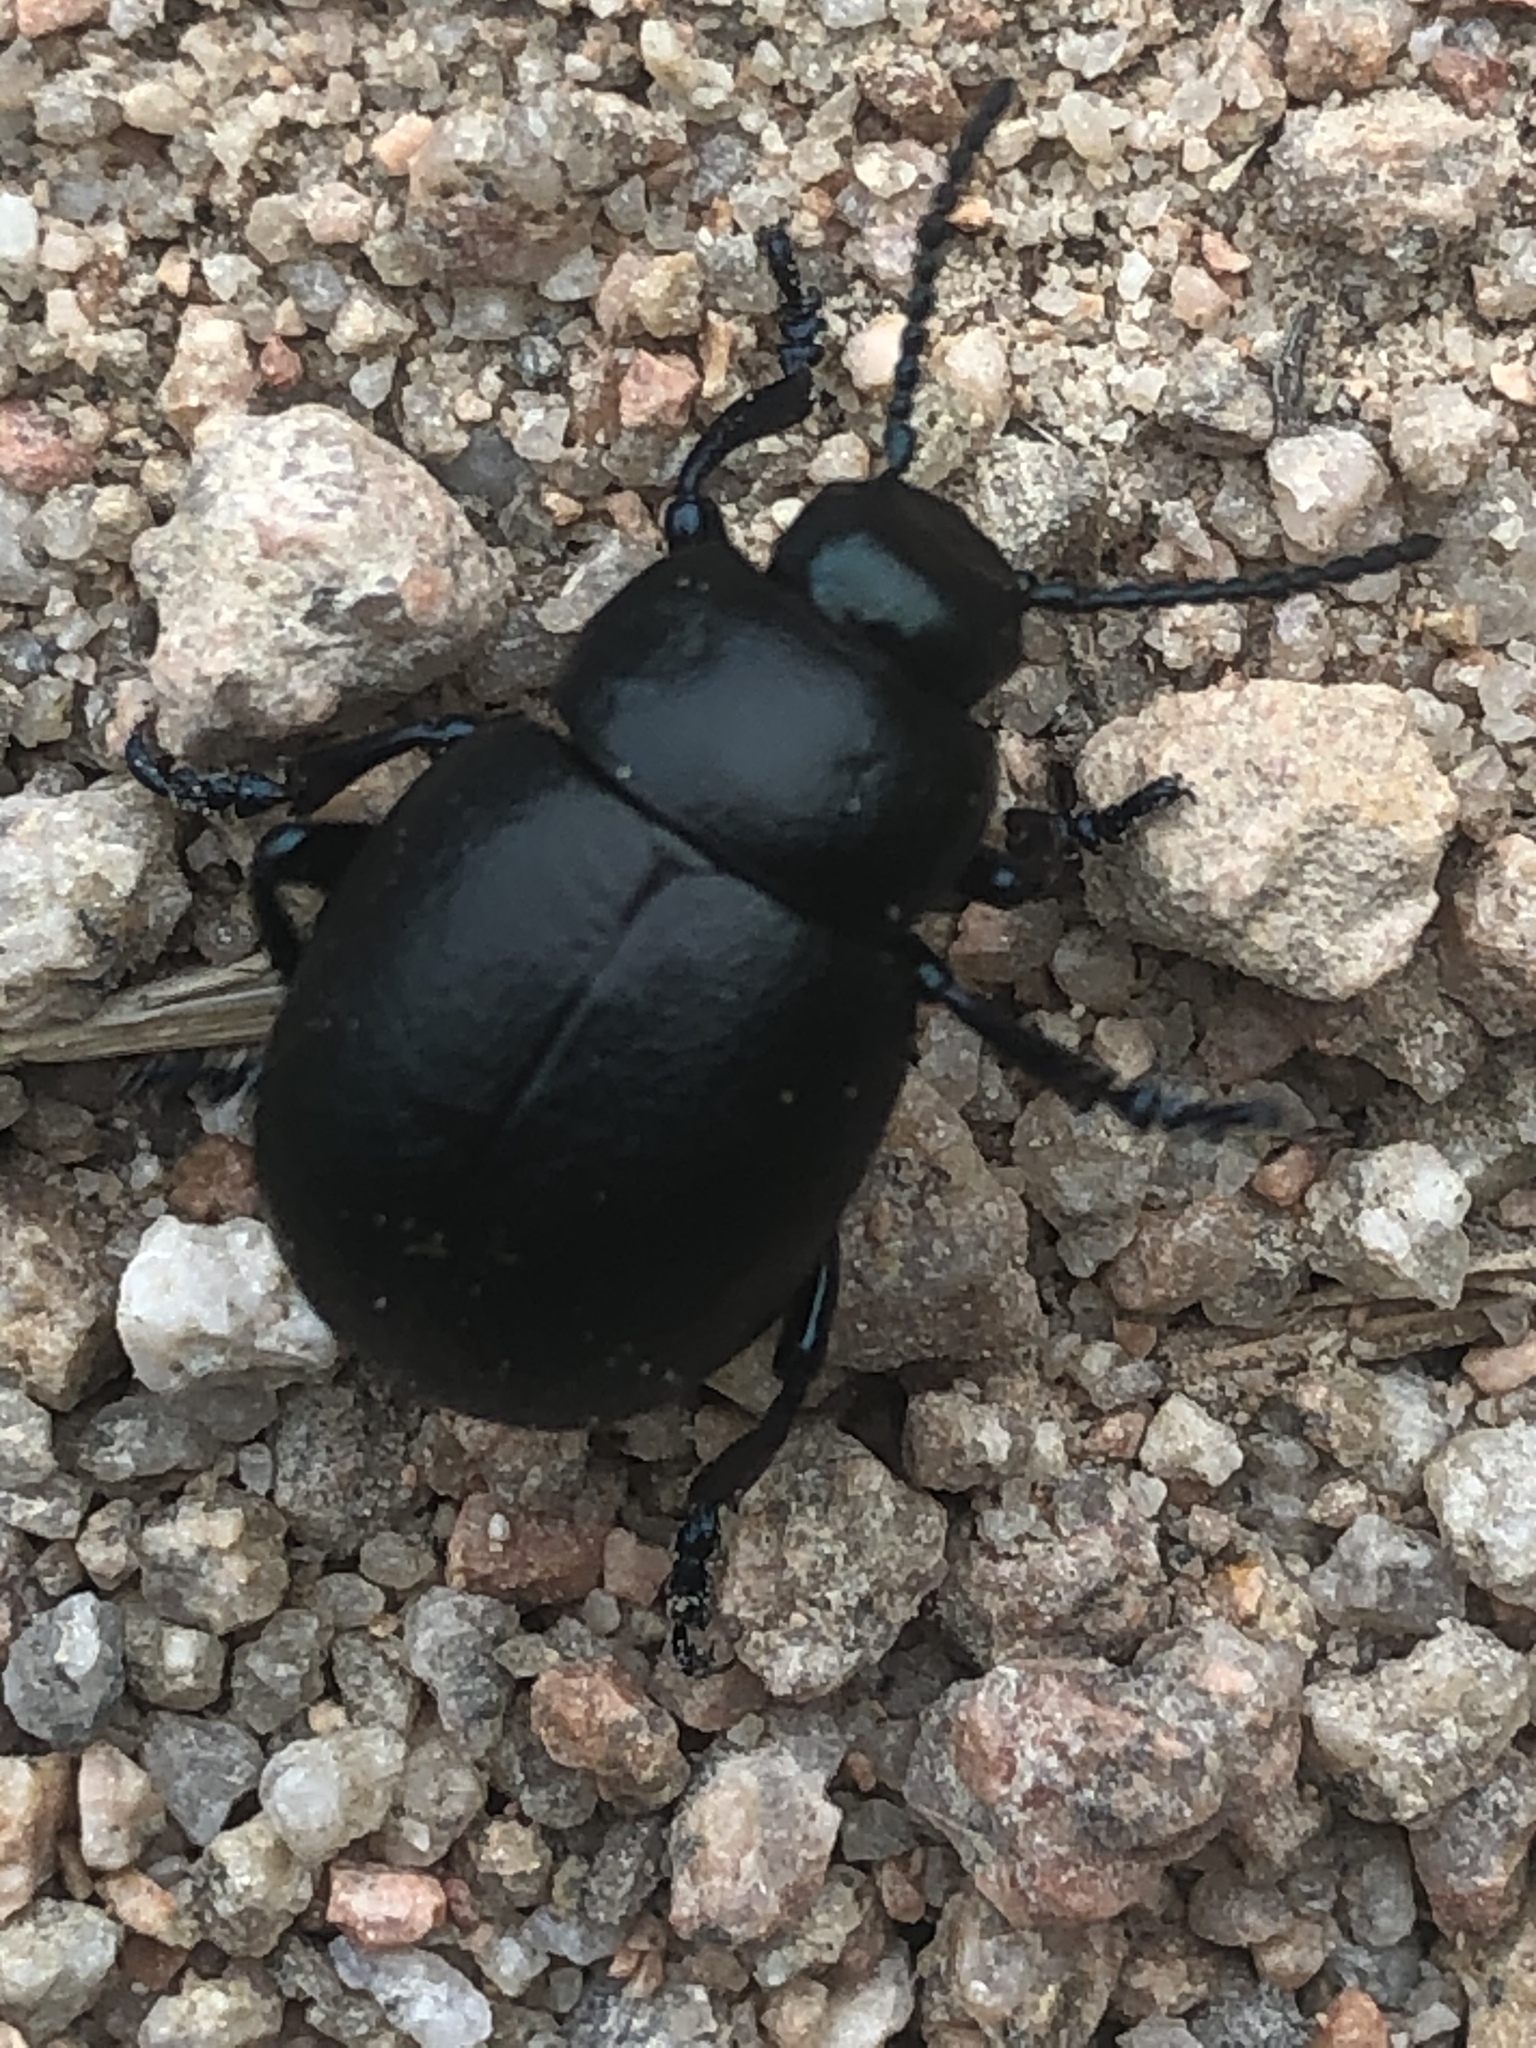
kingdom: Animalia
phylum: Arthropoda
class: Insecta
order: Coleoptera
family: Chrysomelidae
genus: Timarcha
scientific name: Timarcha goettingensis
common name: Small bloody-nosed beetle
